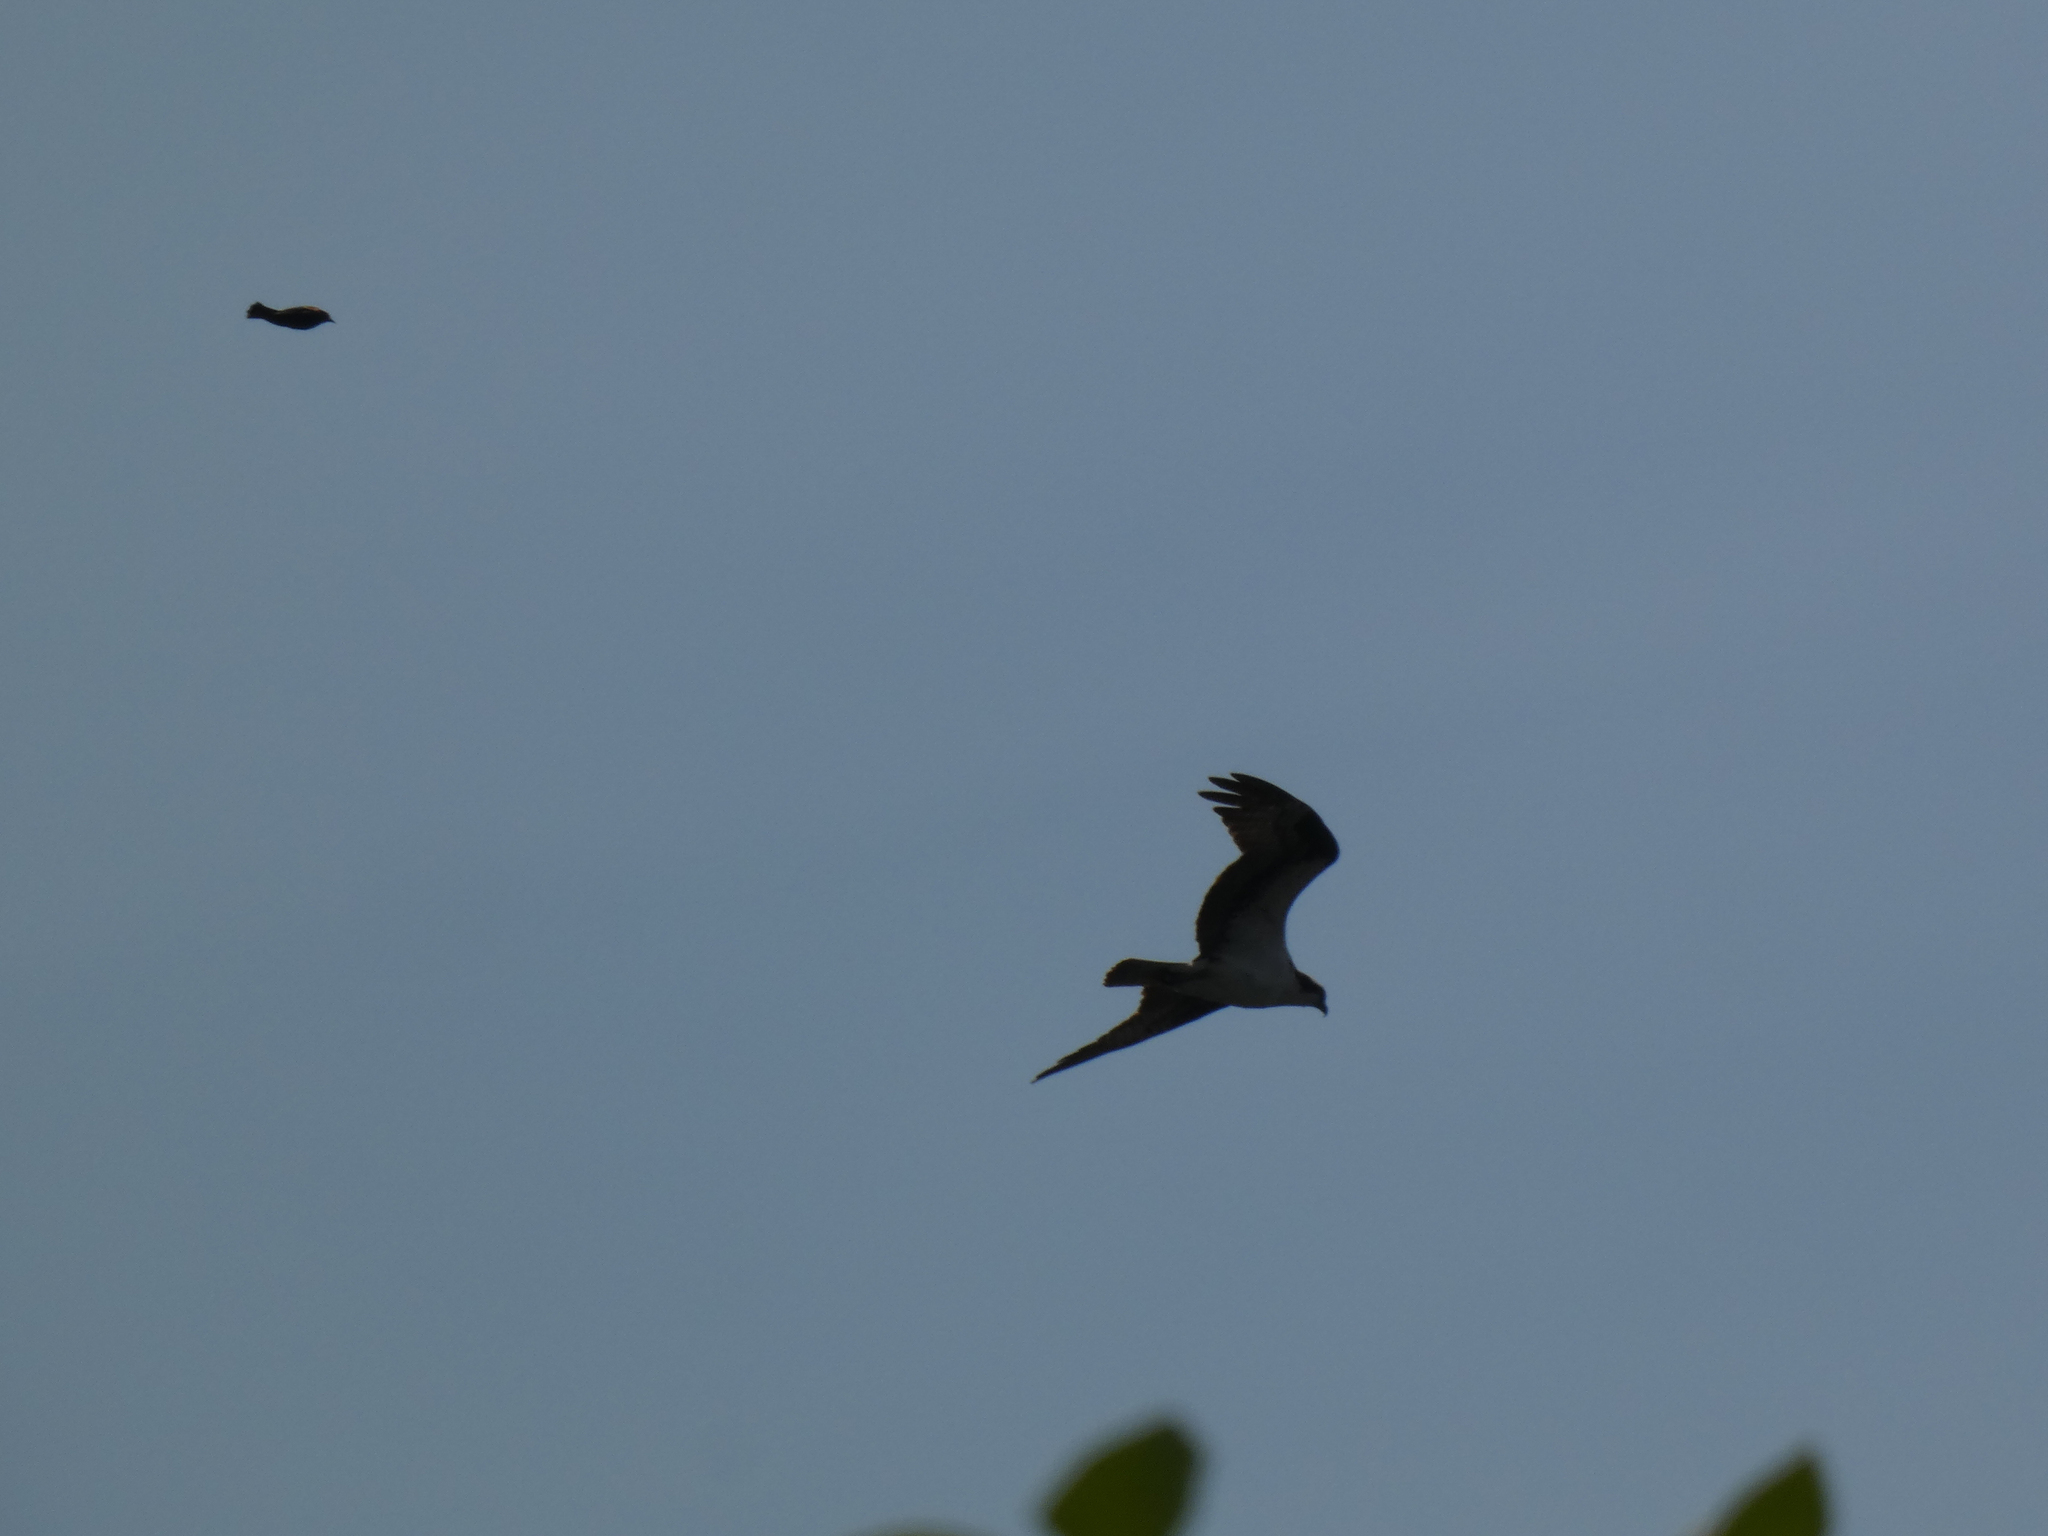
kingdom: Animalia
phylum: Chordata
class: Aves
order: Accipitriformes
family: Pandionidae
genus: Pandion
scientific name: Pandion haliaetus
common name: Osprey
